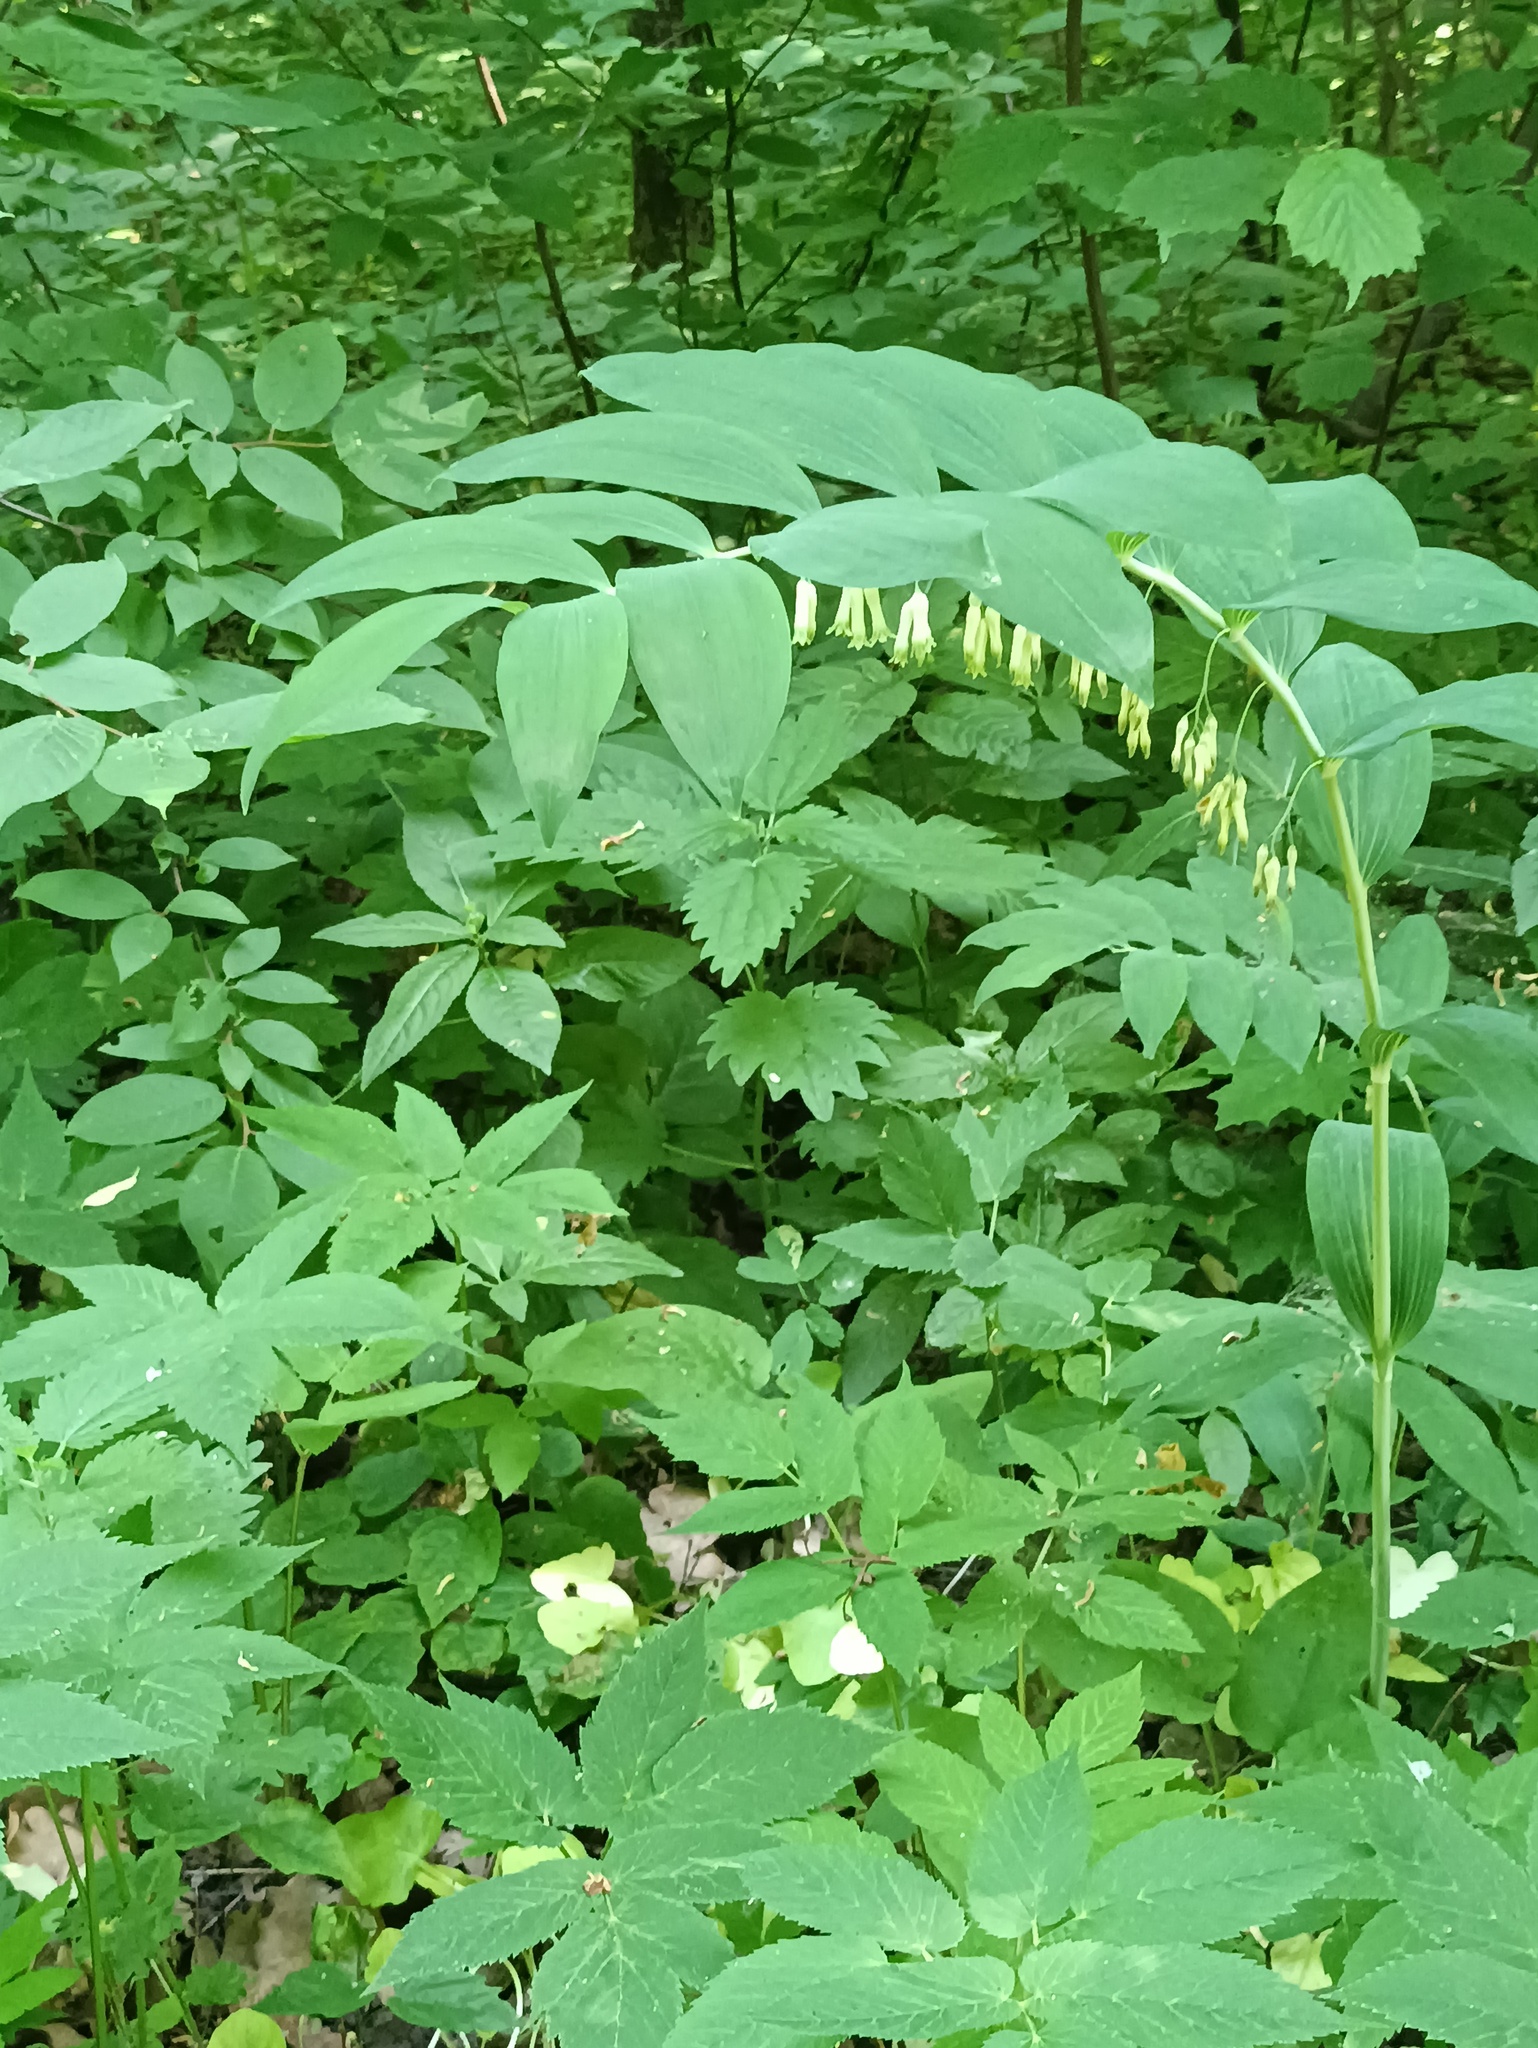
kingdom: Plantae
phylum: Tracheophyta
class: Liliopsida
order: Asparagales
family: Asparagaceae
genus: Polygonatum
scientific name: Polygonatum multiflorum
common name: Solomon's-seal
